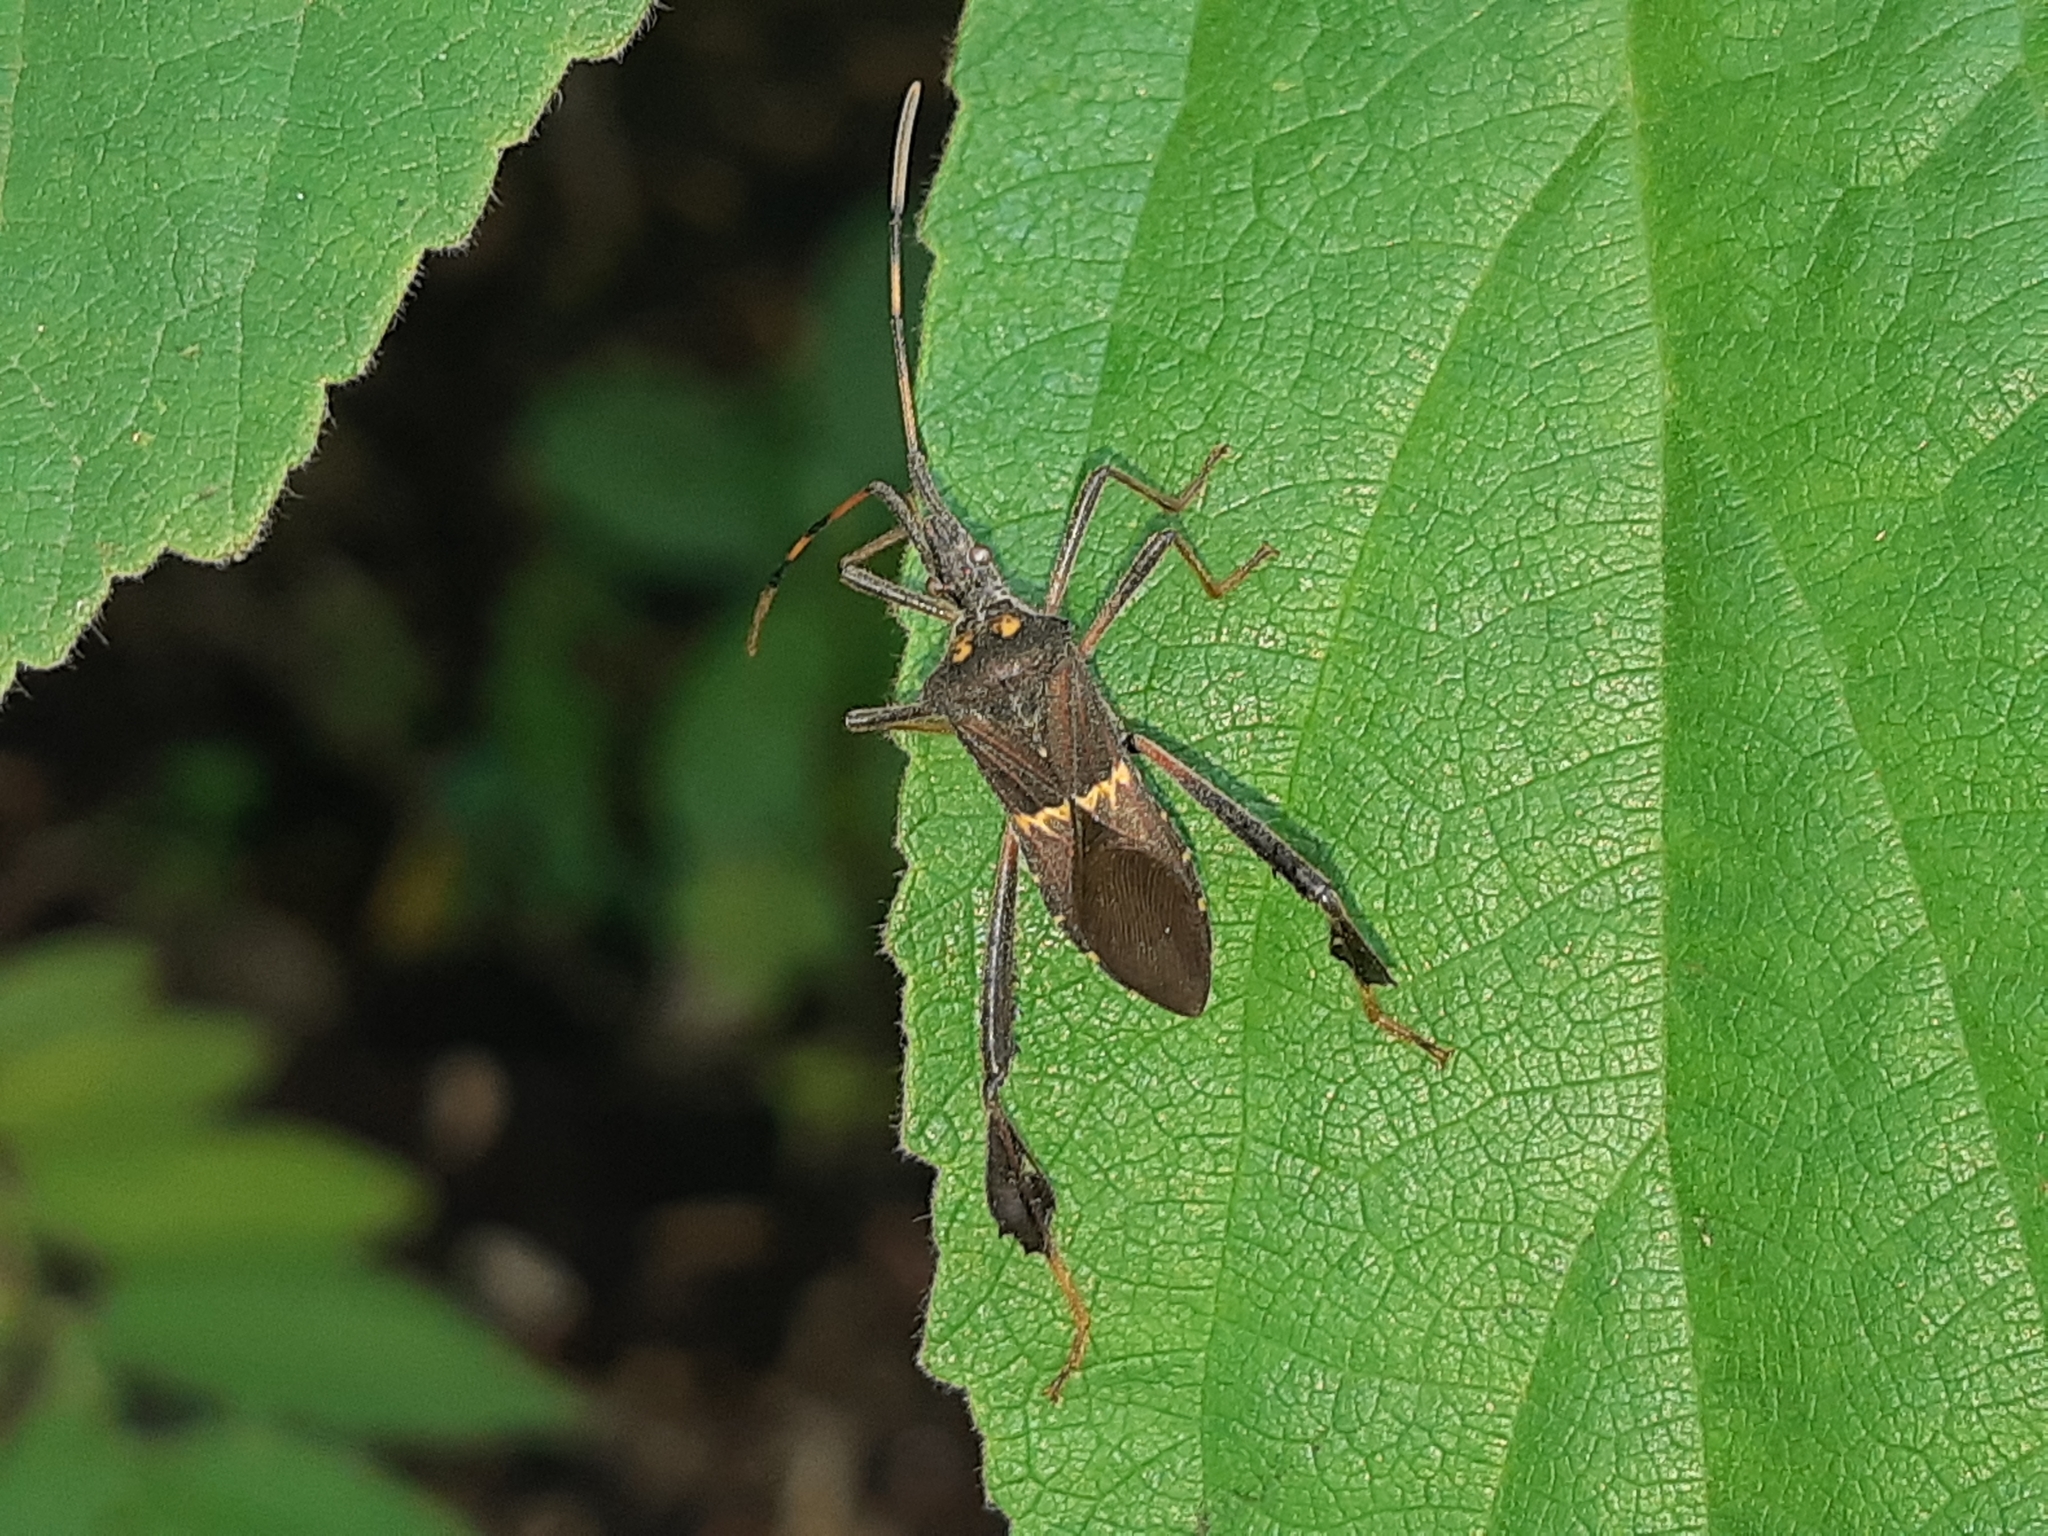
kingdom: Animalia
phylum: Arthropoda
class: Insecta
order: Hemiptera
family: Coreidae
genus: Leptoglossus
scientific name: Leptoglossus zonatus
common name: Large-legged bug
